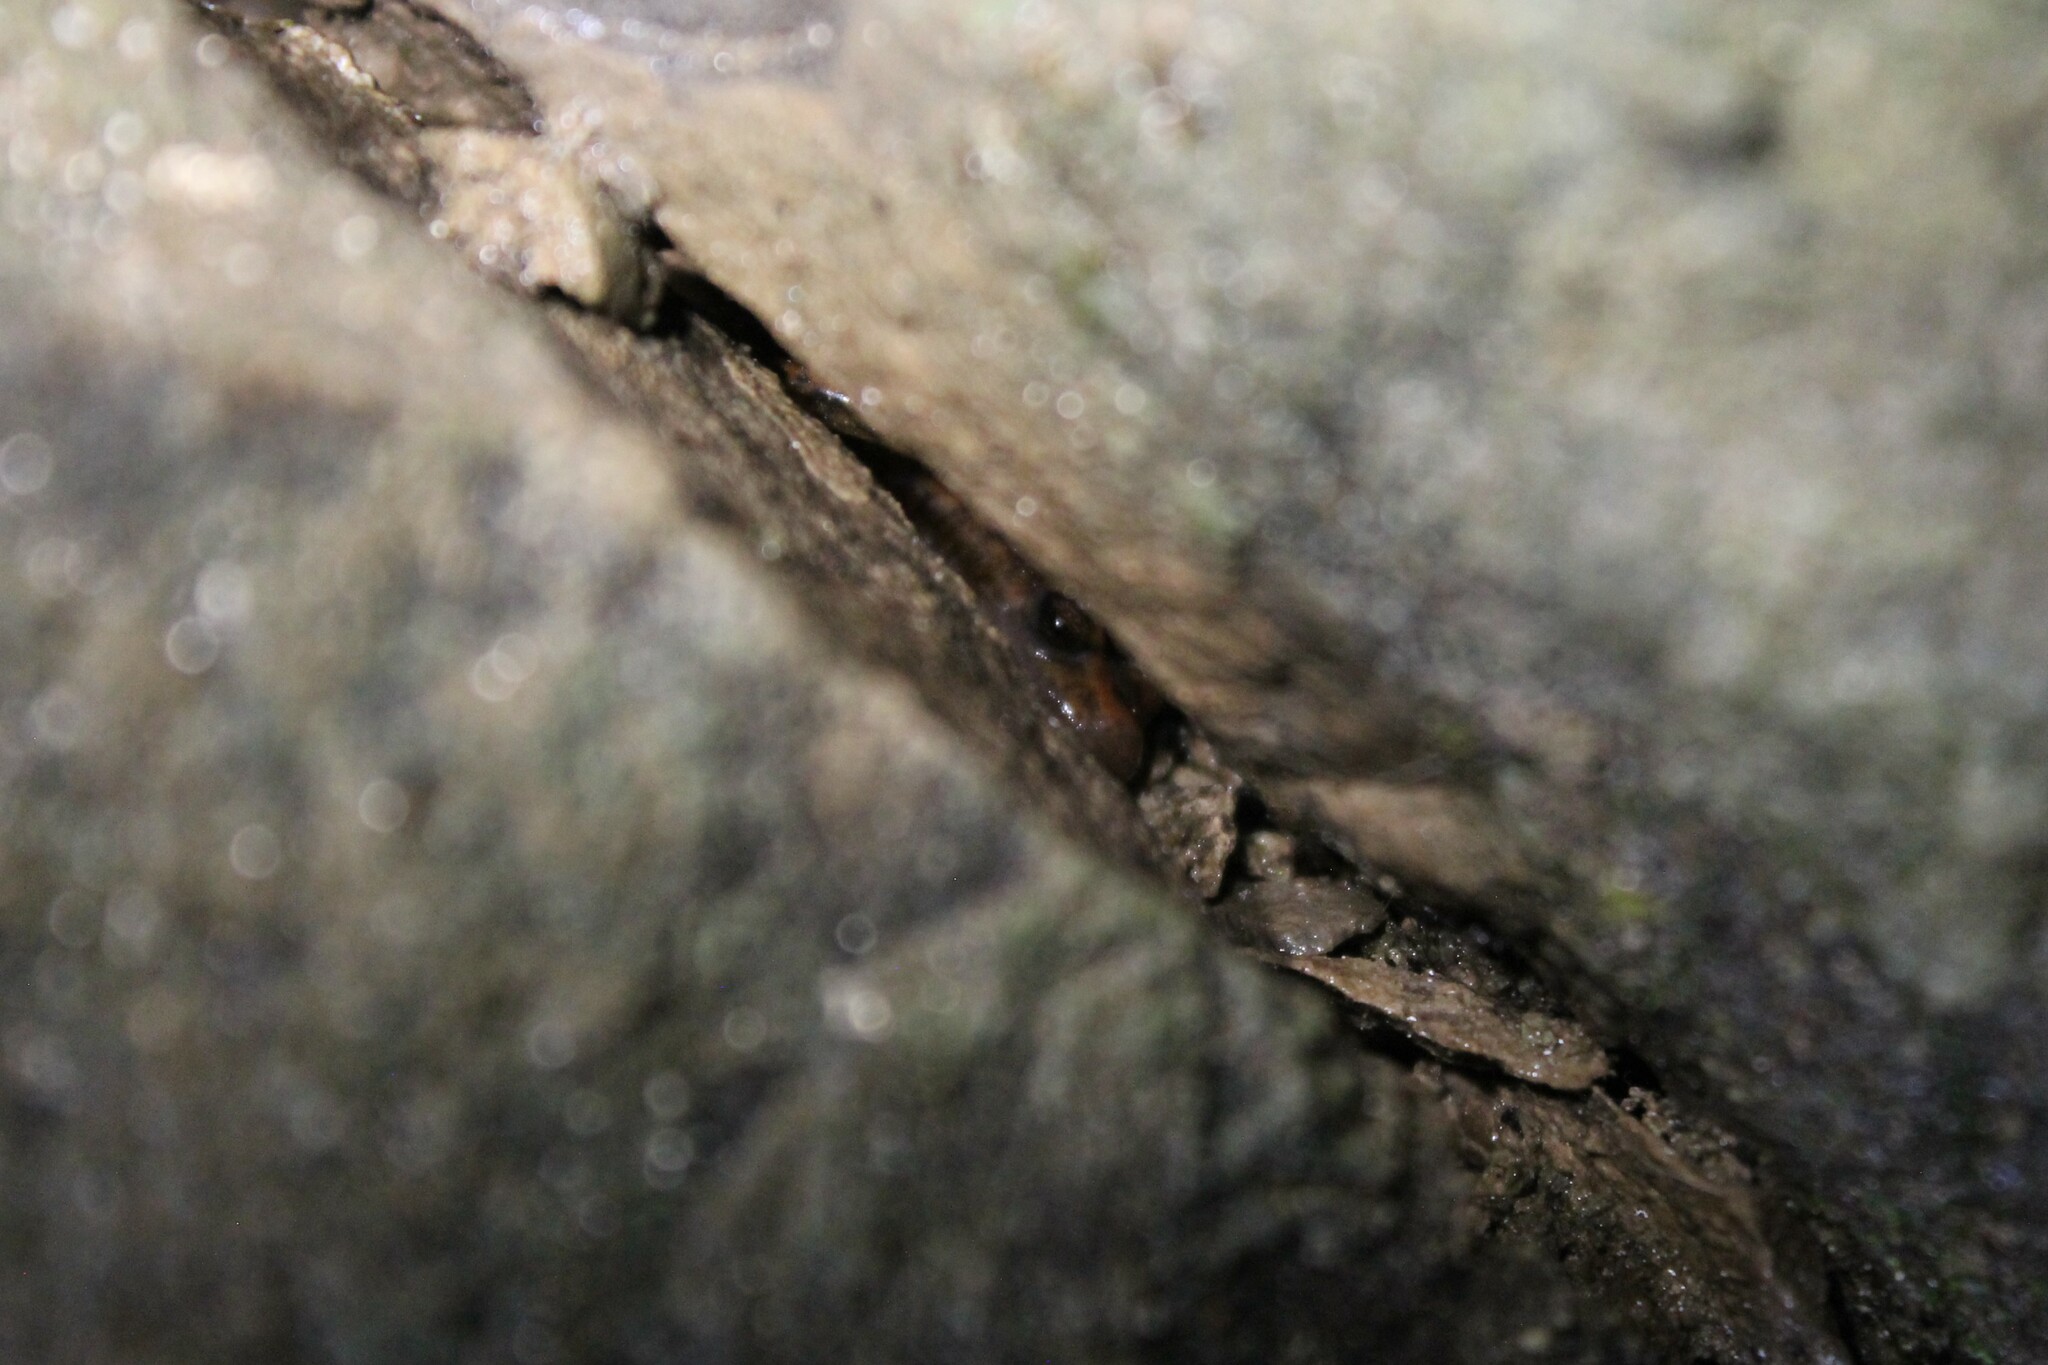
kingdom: Animalia
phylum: Chordata
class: Amphibia
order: Caudata
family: Plethodontidae
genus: Eurycea
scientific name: Eurycea lucifuga
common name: Cave salamander
